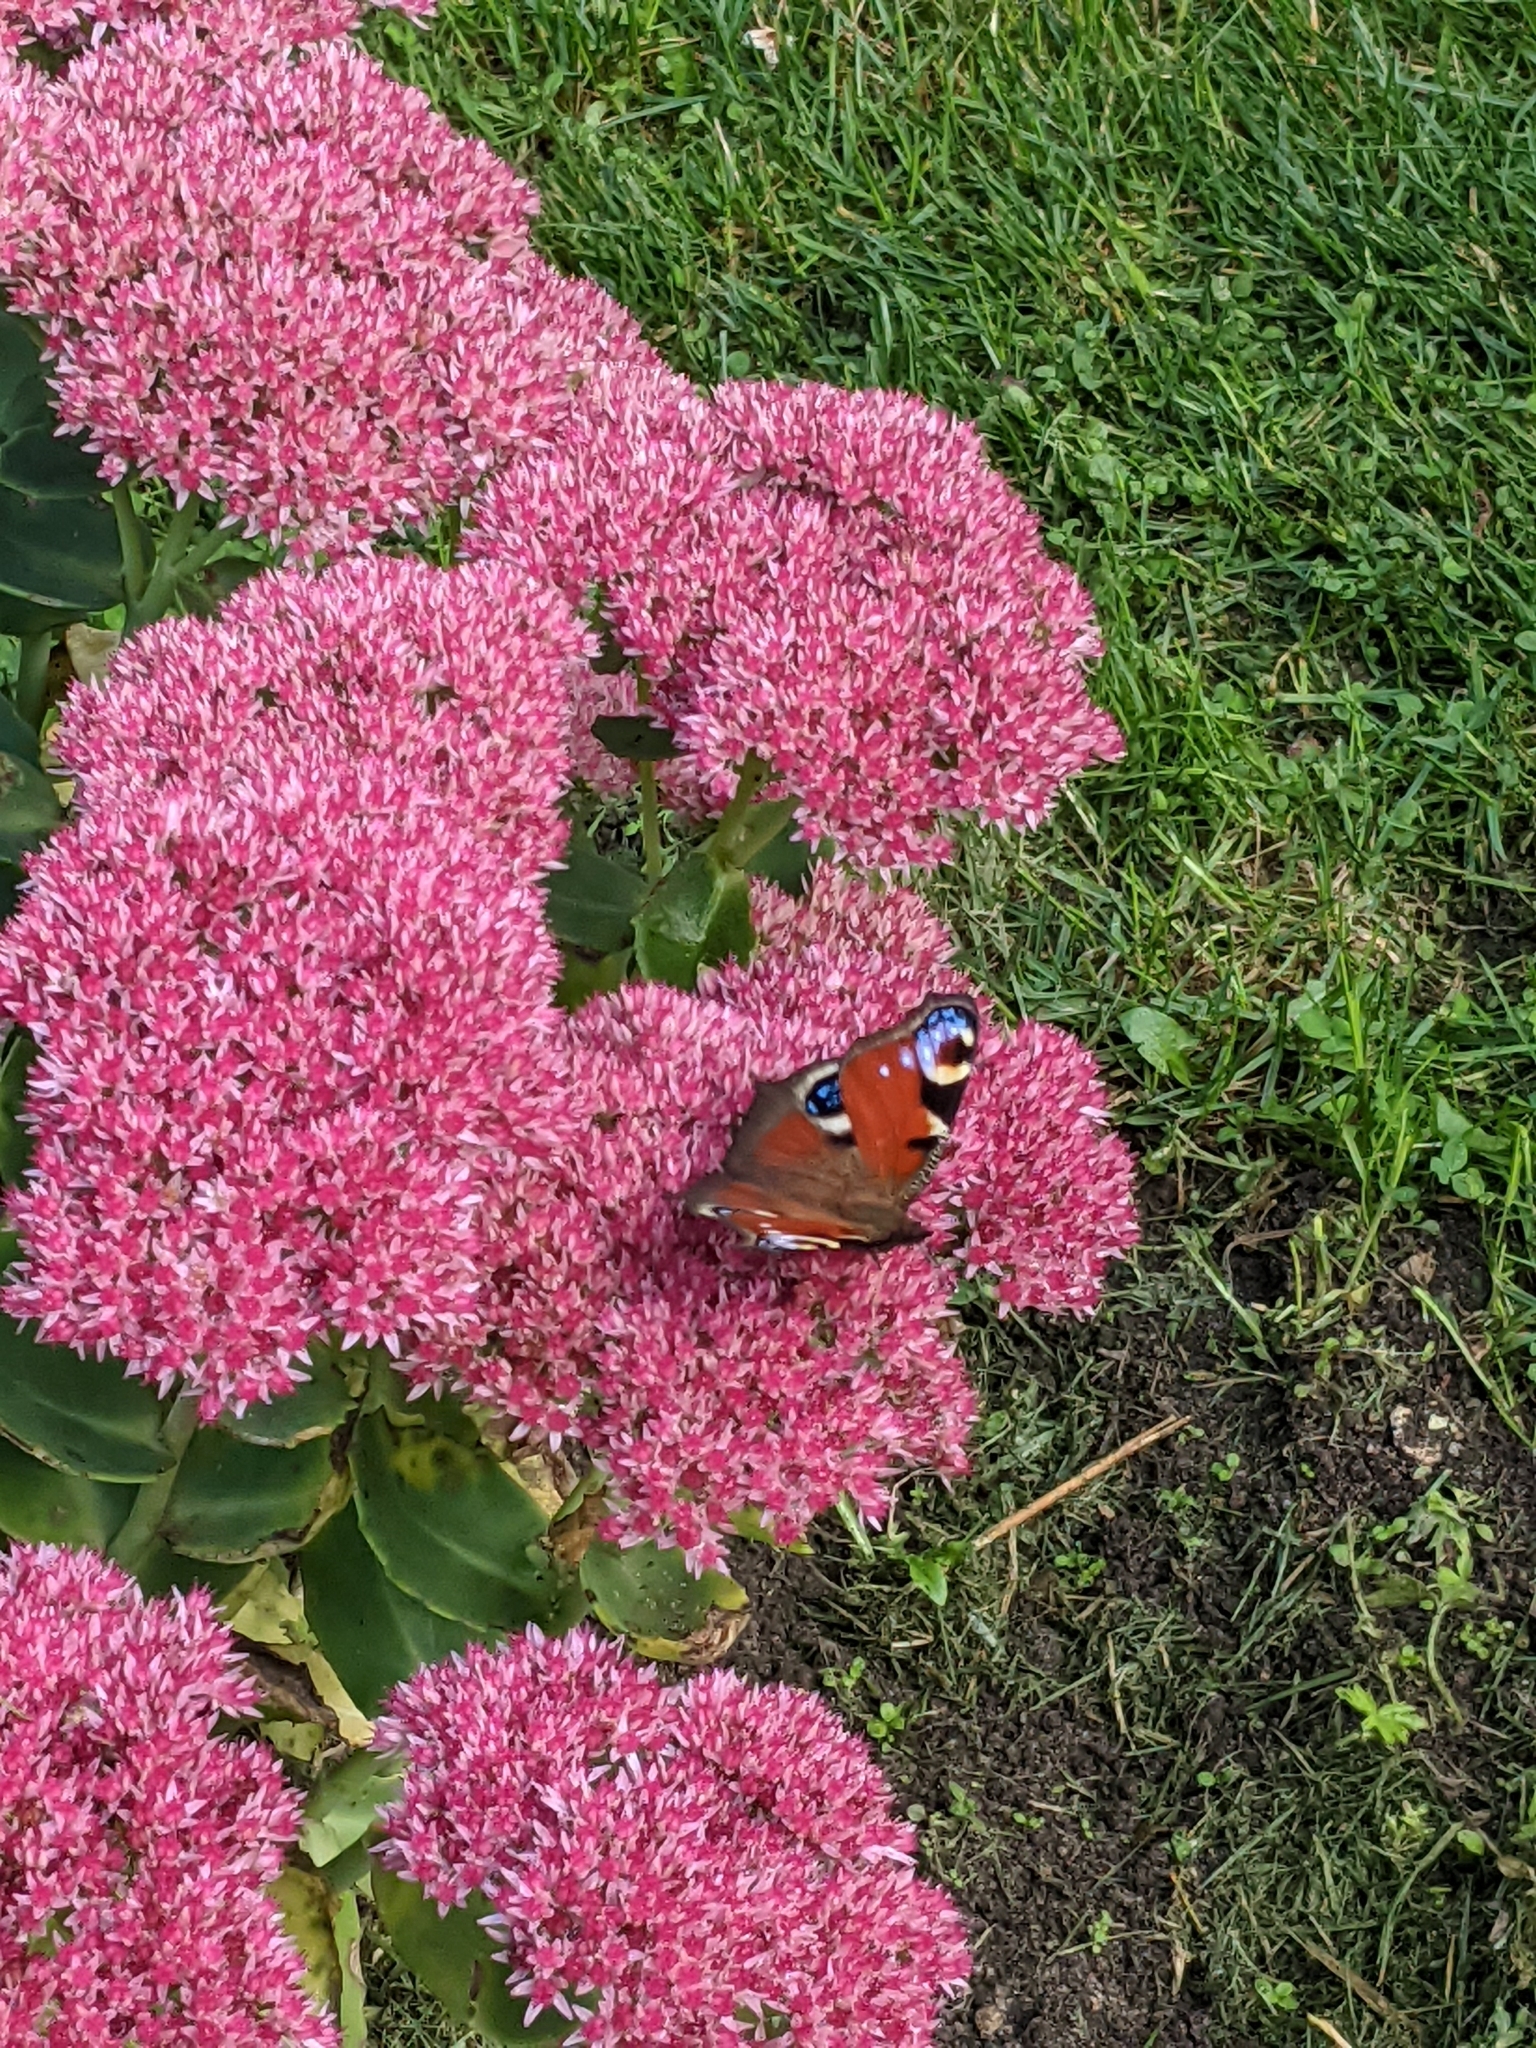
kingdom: Animalia
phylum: Arthropoda
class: Insecta
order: Lepidoptera
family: Nymphalidae
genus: Aglais
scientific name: Aglais io
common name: Peacock
